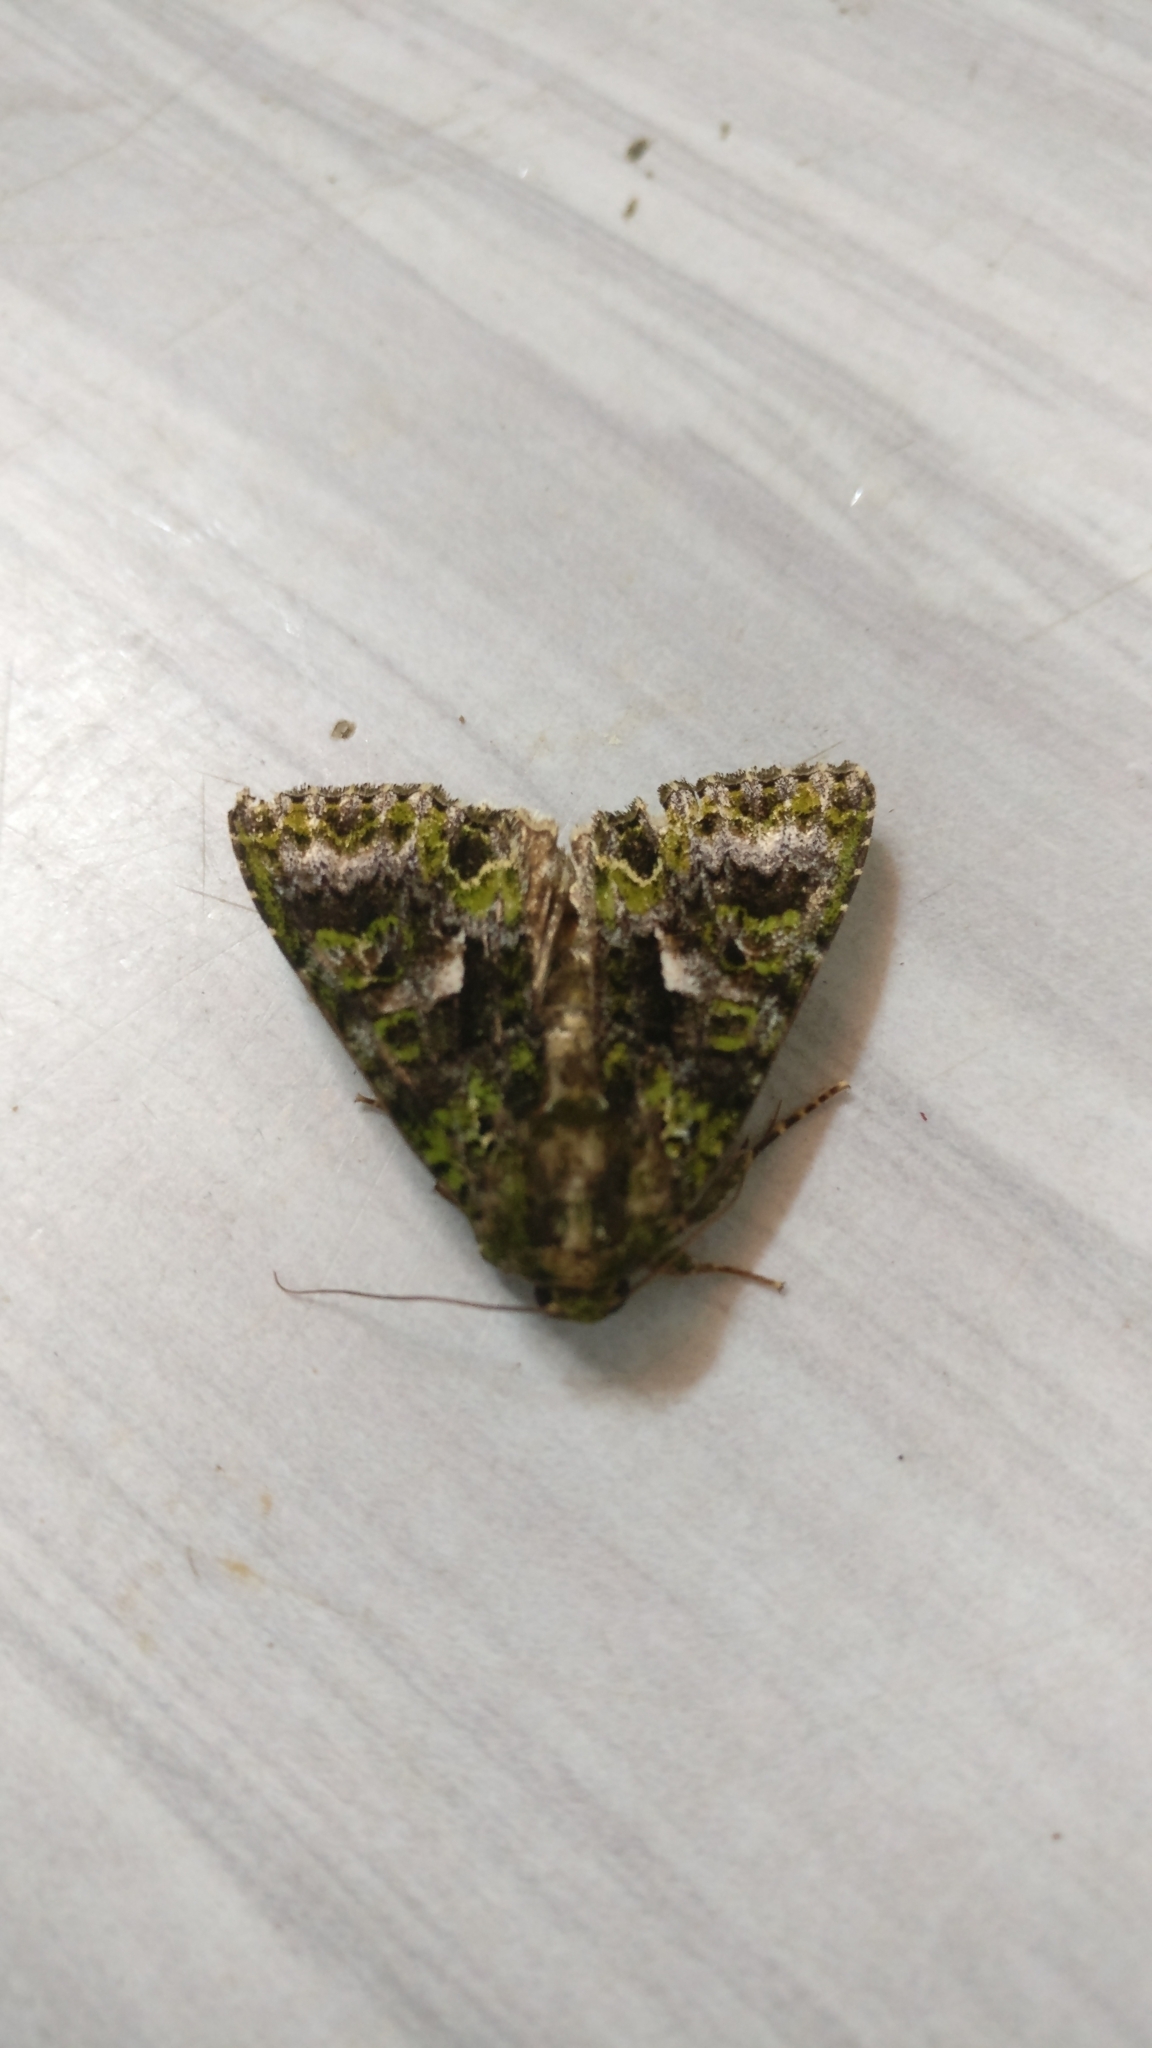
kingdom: Animalia
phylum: Arthropoda
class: Insecta
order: Lepidoptera
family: Noctuidae
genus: Trachea
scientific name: Trachea auriplena
